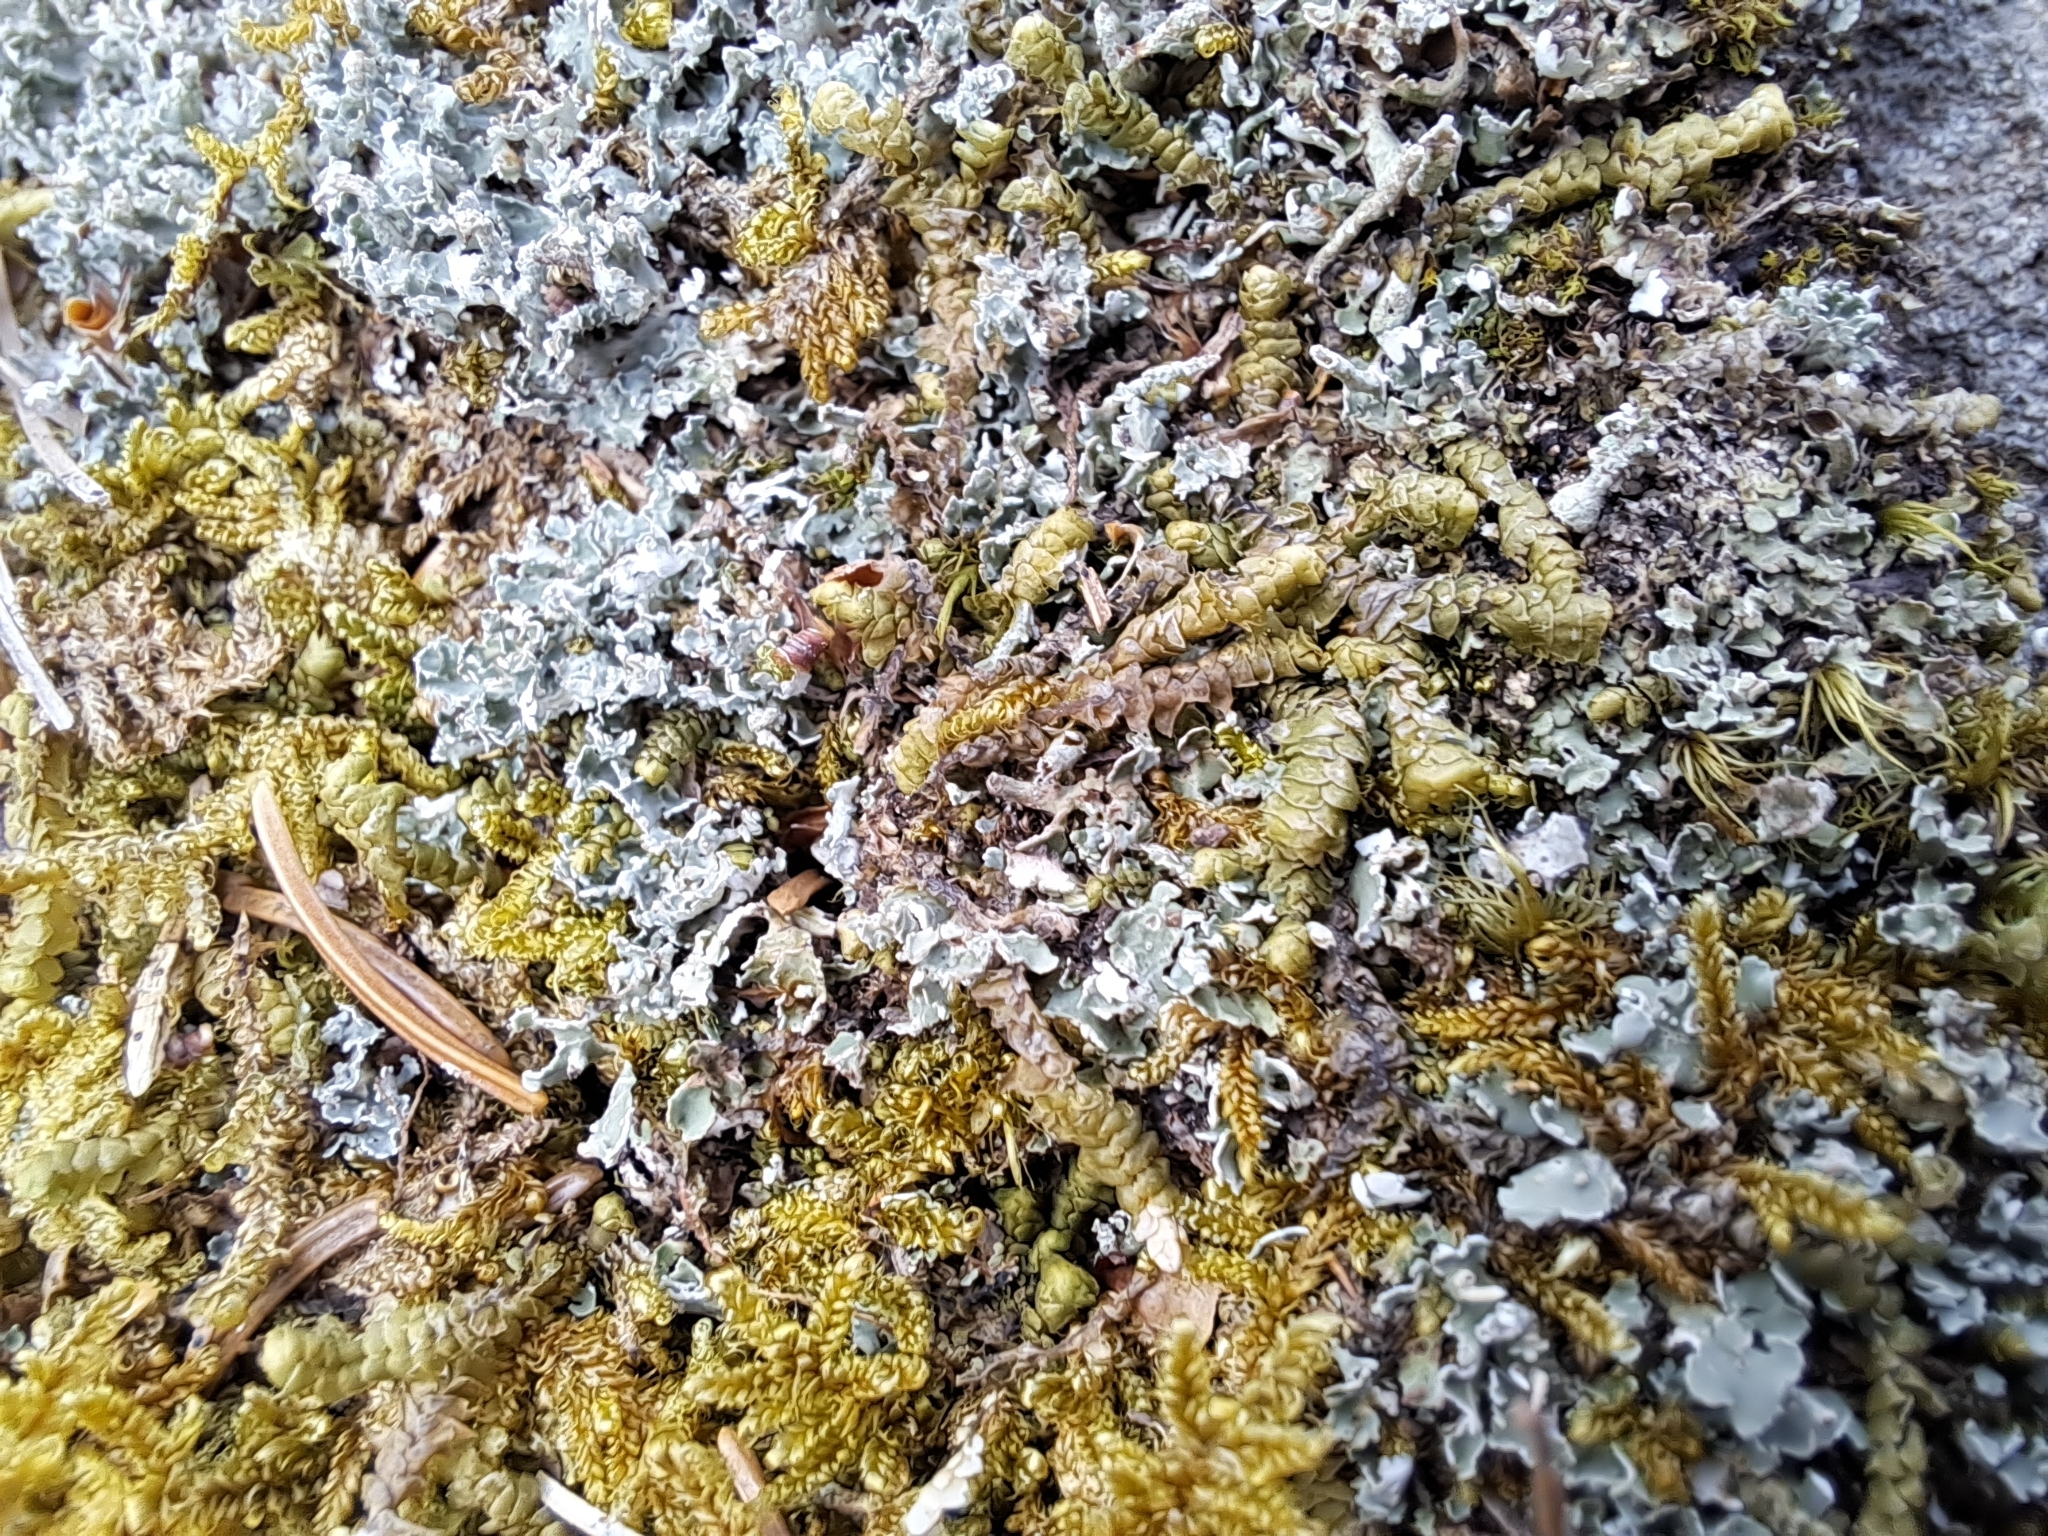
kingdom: Plantae
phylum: Marchantiophyta
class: Jungermanniopsida
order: Jungermanniales
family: Lepidoziaceae
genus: Bazzania
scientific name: Bazzania trilobata
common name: Three-lobed whipwort
